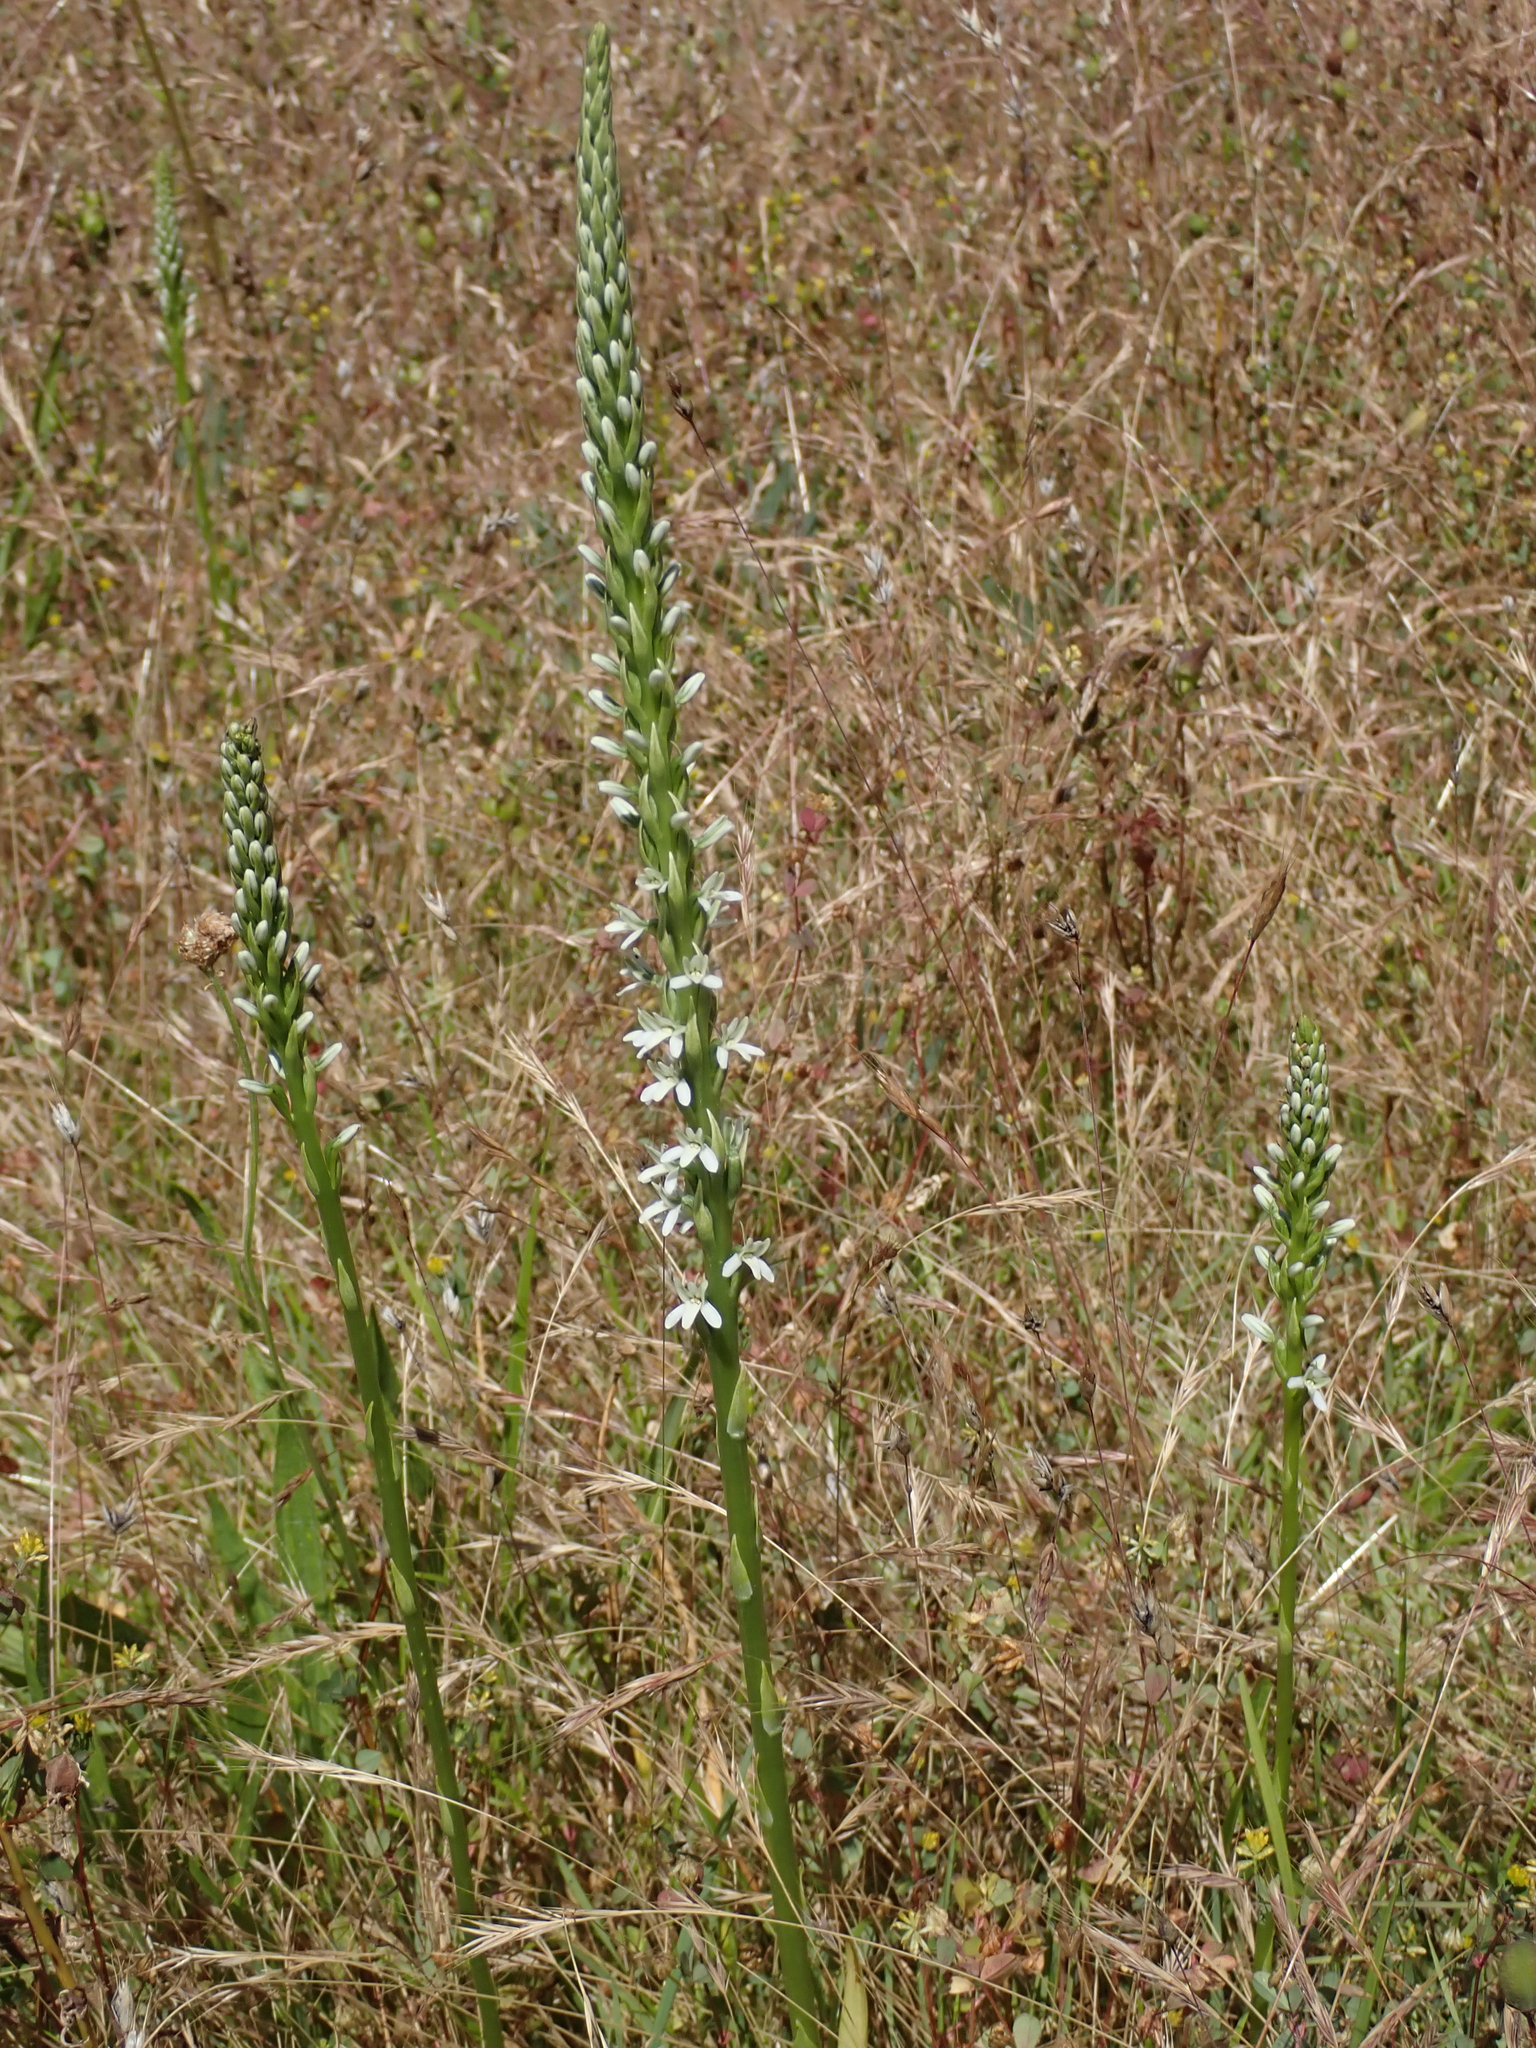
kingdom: Plantae
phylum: Tracheophyta
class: Liliopsida
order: Asparagales
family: Orchidaceae
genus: Platanthera
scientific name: Platanthera elegans
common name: Coast piperia
